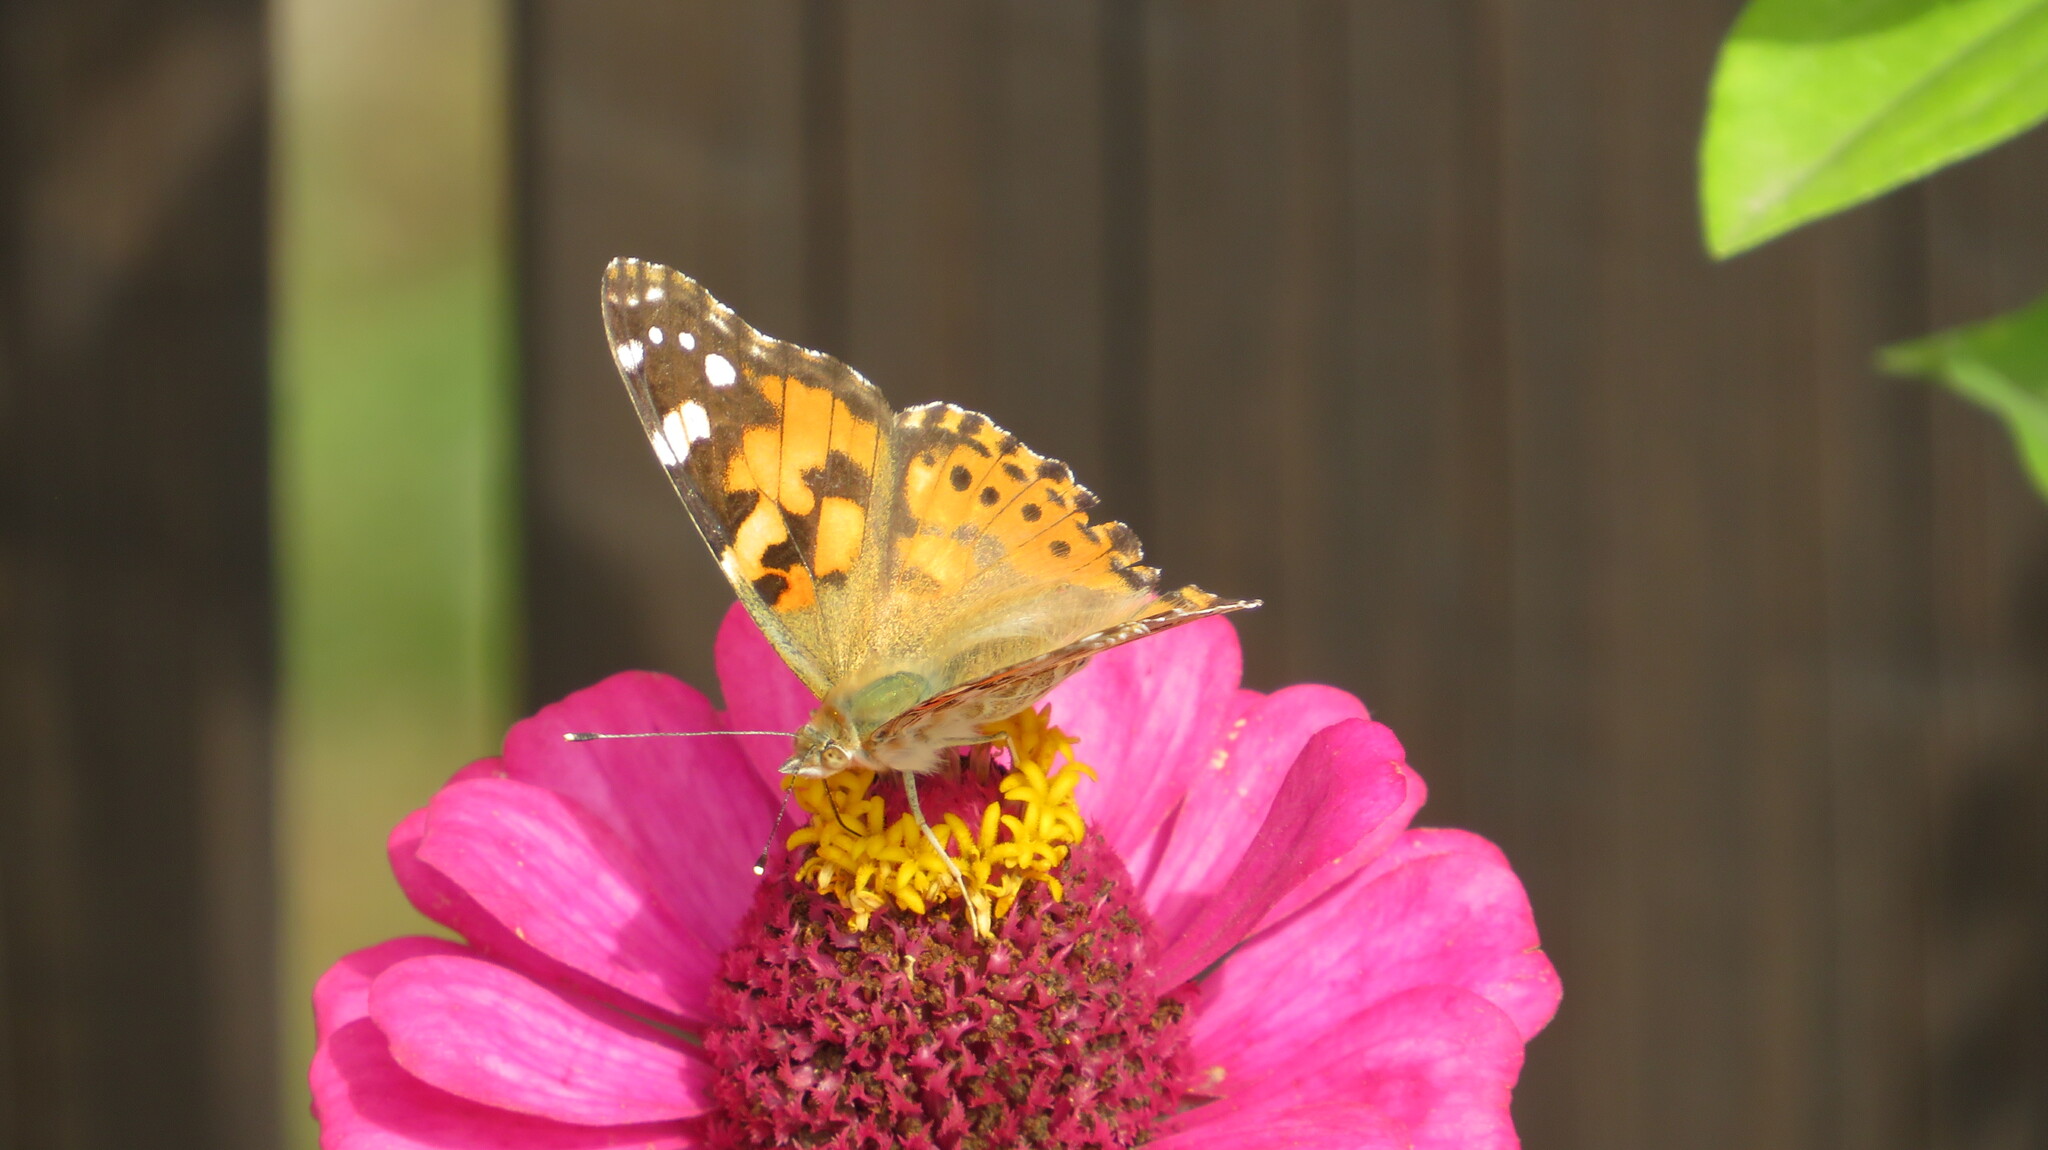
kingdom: Animalia
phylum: Arthropoda
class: Insecta
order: Lepidoptera
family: Nymphalidae
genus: Vanessa
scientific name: Vanessa cardui
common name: Painted lady
